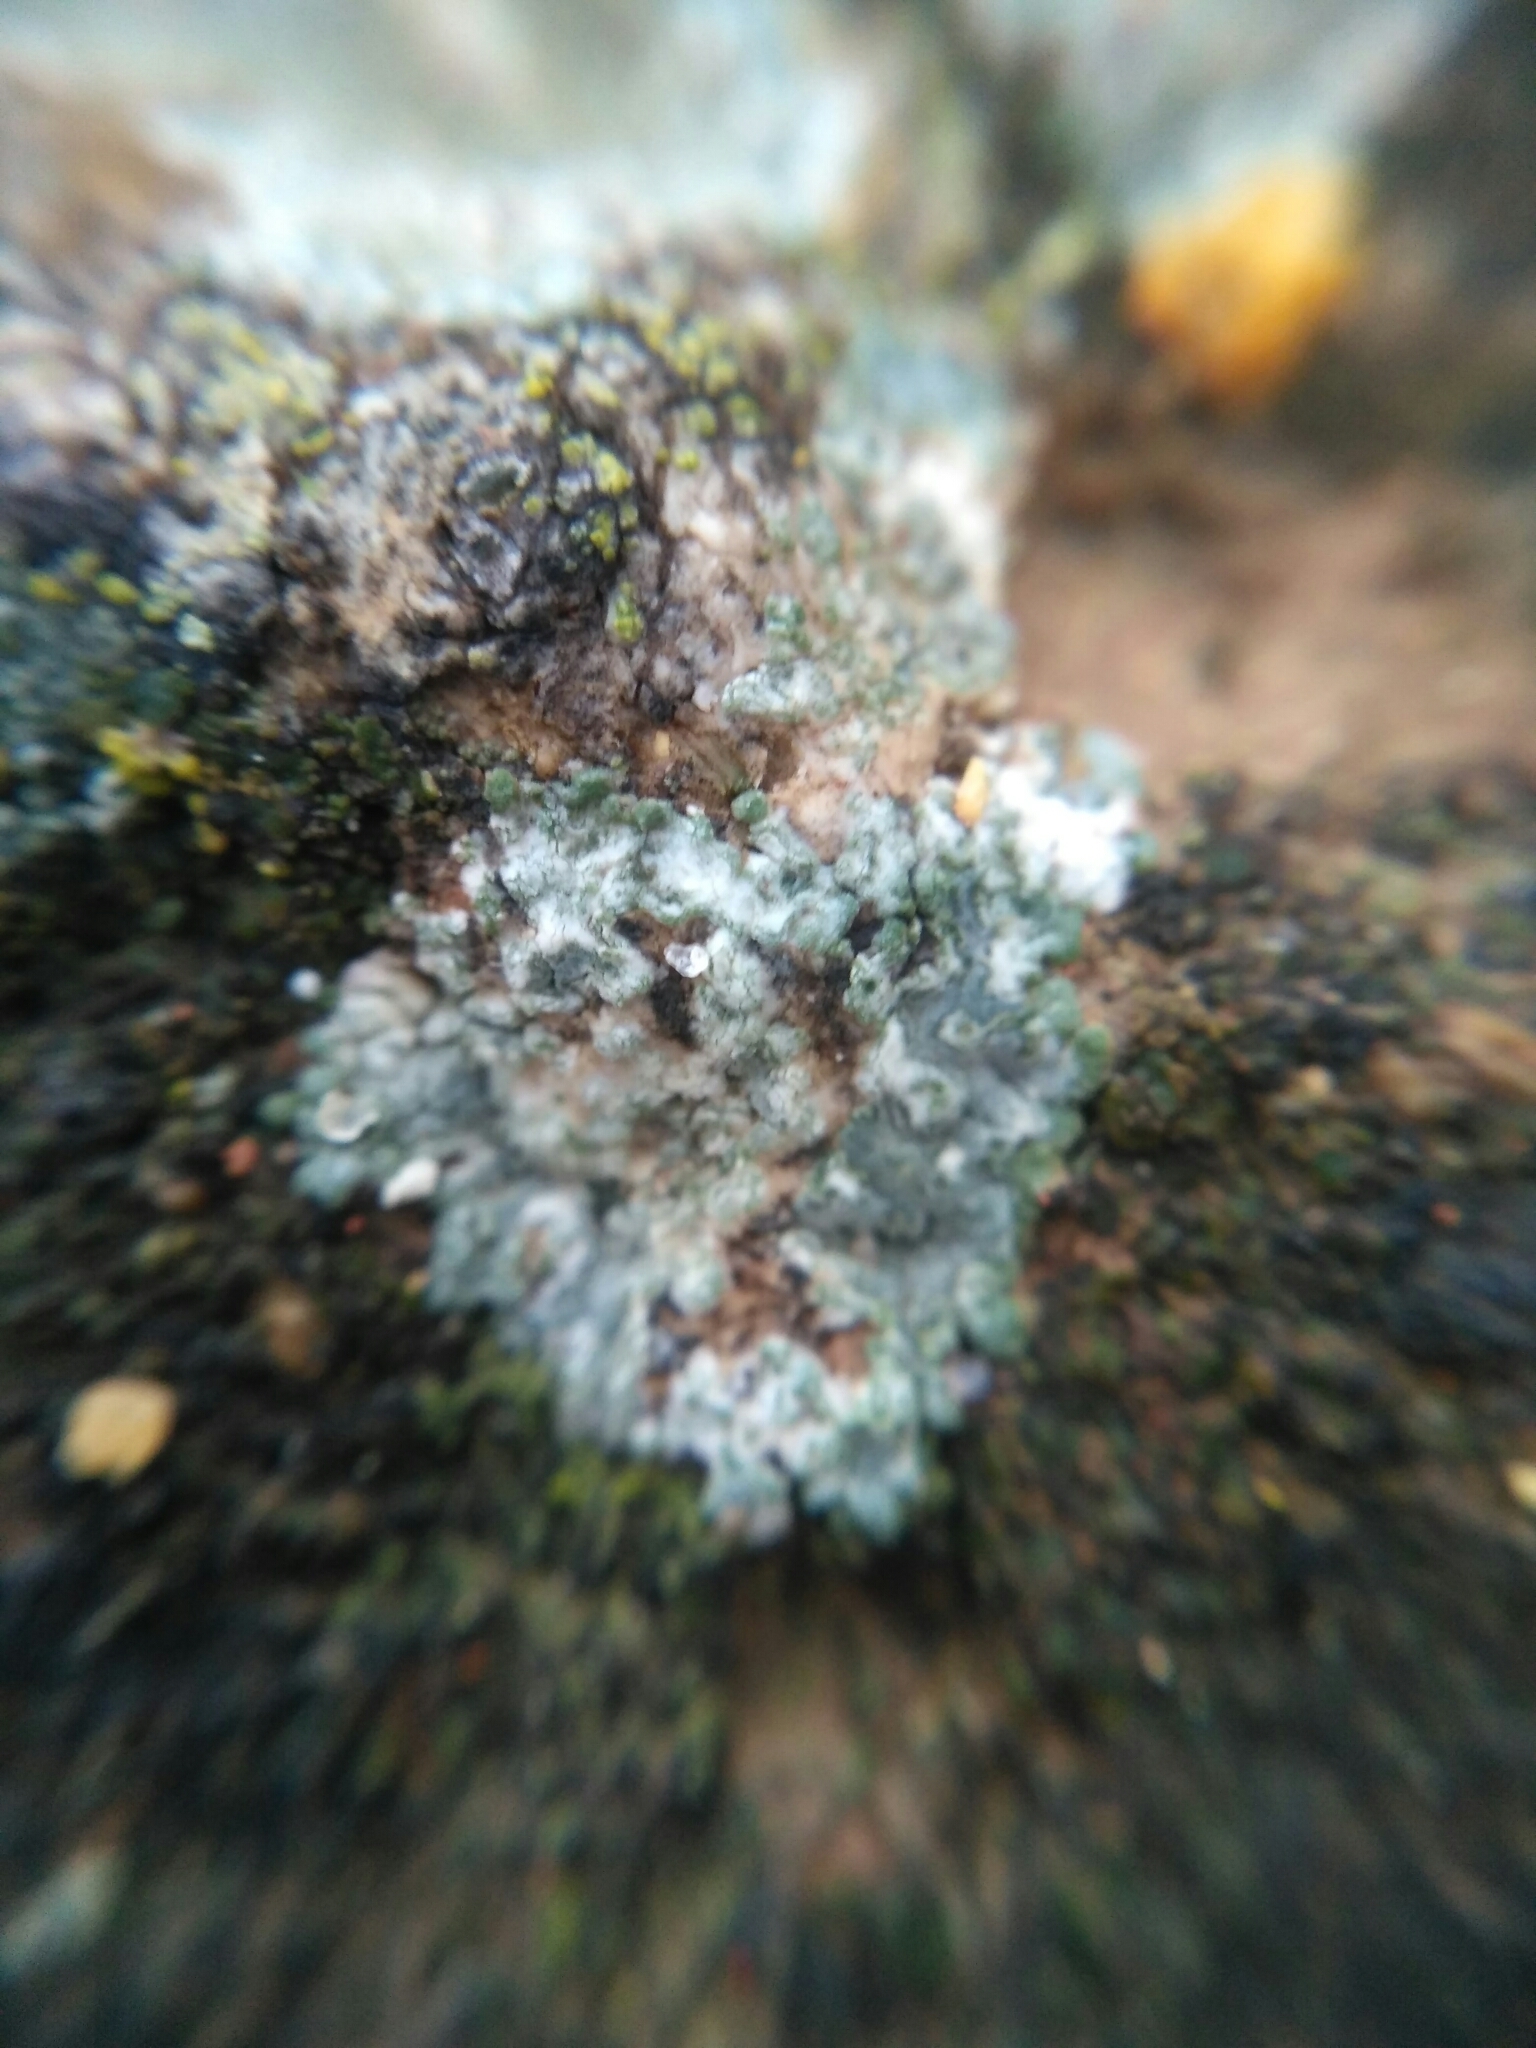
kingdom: Fungi
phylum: Ascomycota
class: Lecanoromycetes
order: Teloschistales
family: Teloschistaceae
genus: Kuettlingeria
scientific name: Kuettlingeria teicholyta
